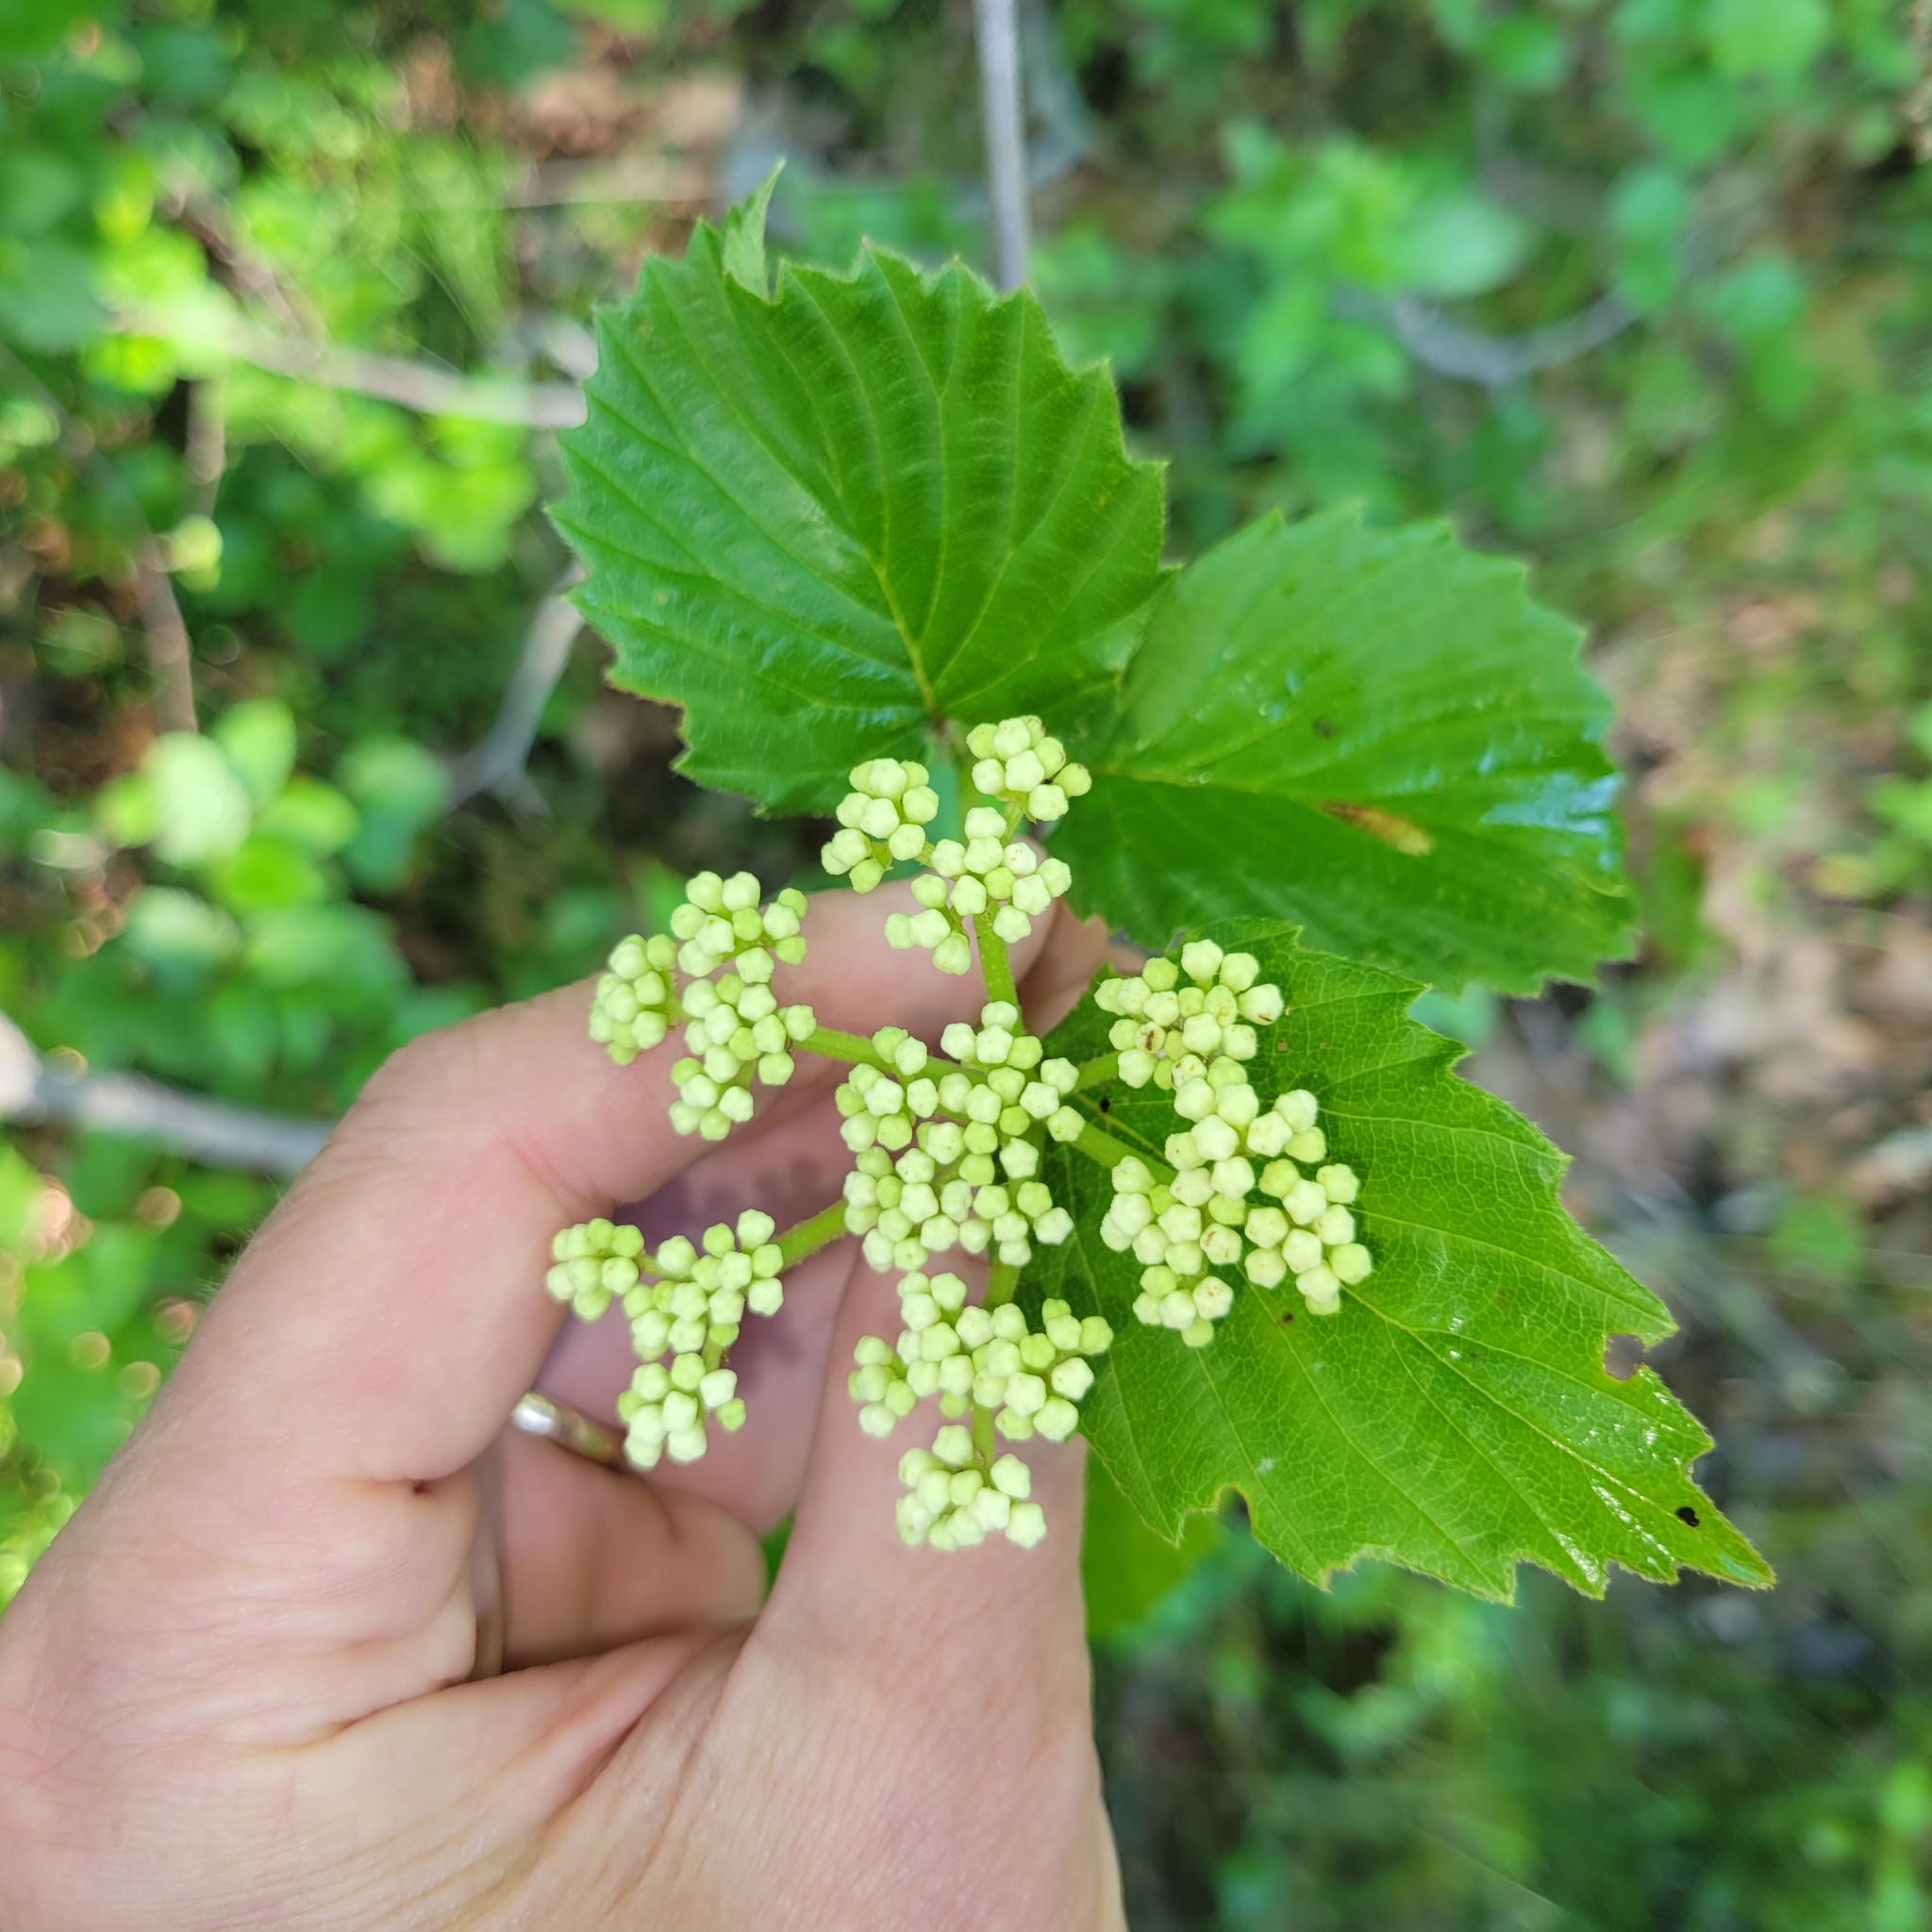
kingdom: Plantae
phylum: Tracheophyta
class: Magnoliopsida
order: Dipsacales
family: Viburnaceae
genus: Viburnum
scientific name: Viburnum dentatum
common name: Arrow-wood
